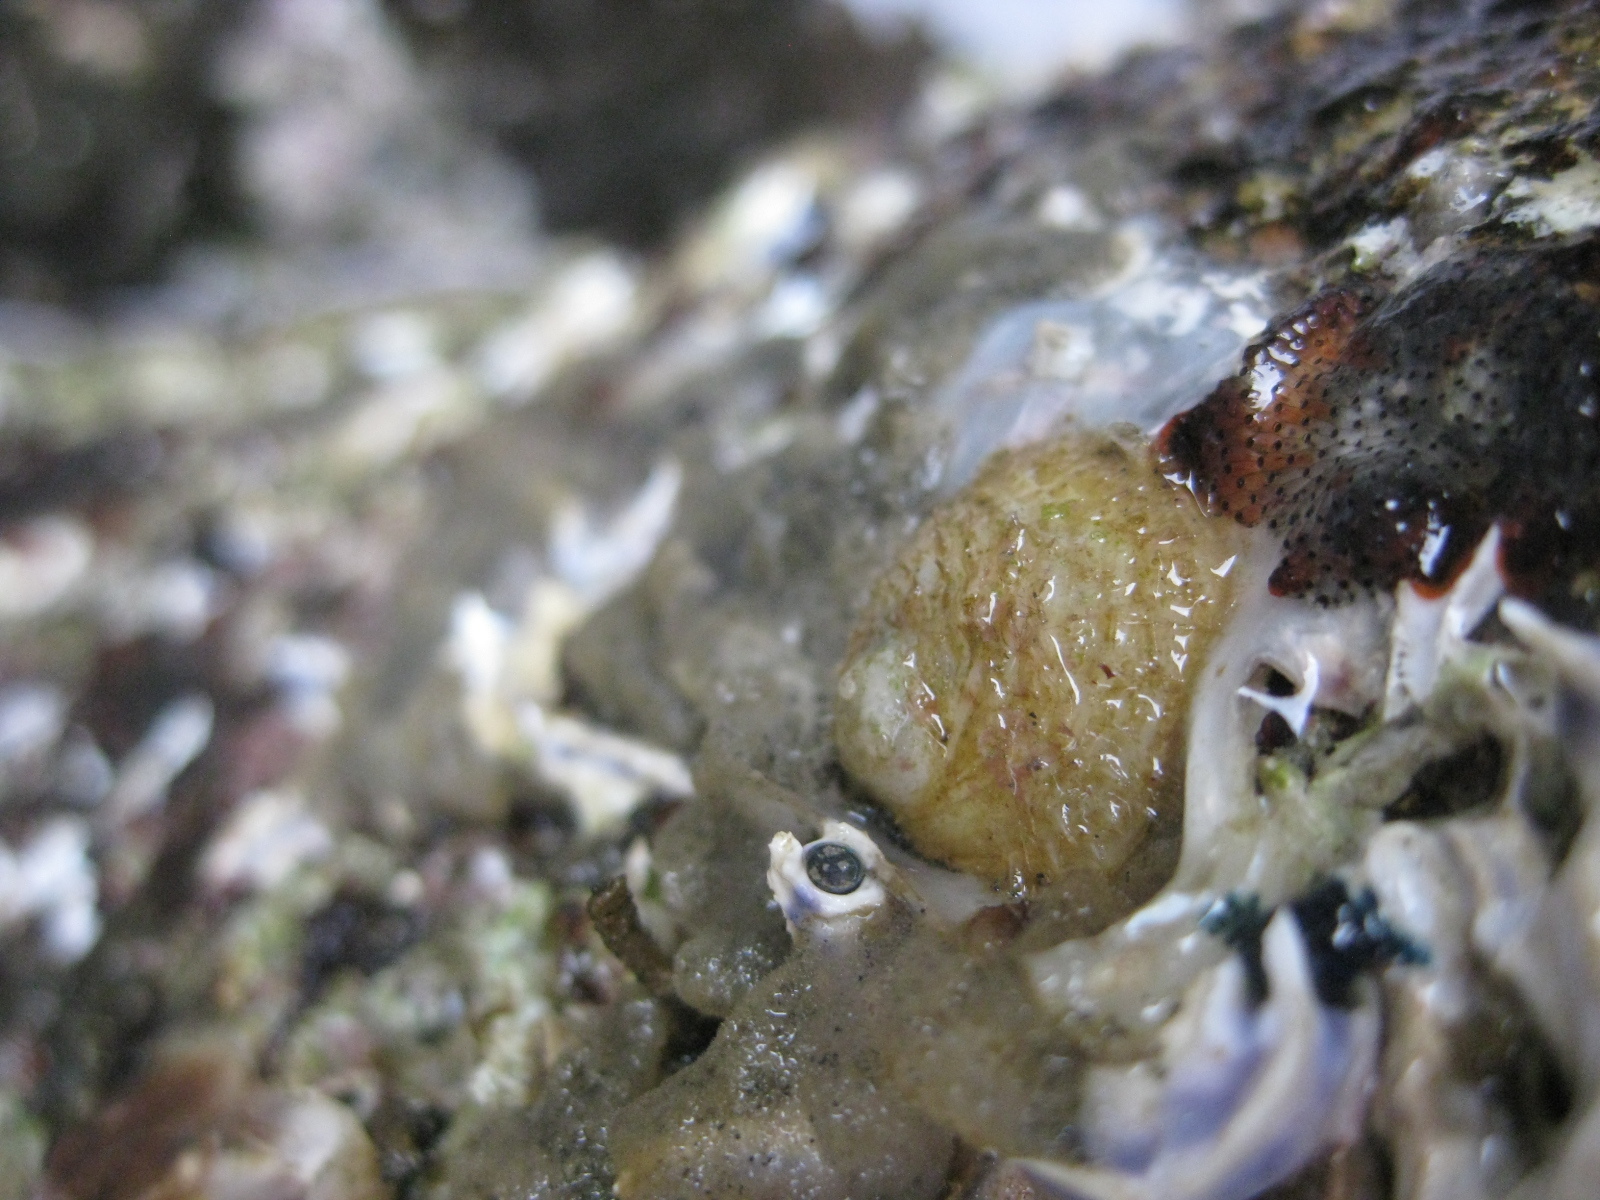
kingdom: Animalia
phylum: Mollusca
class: Gastropoda
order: Littorinimorpha
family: Calyptraeidae
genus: Sigapatella
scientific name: Sigapatella novaezelandiae
